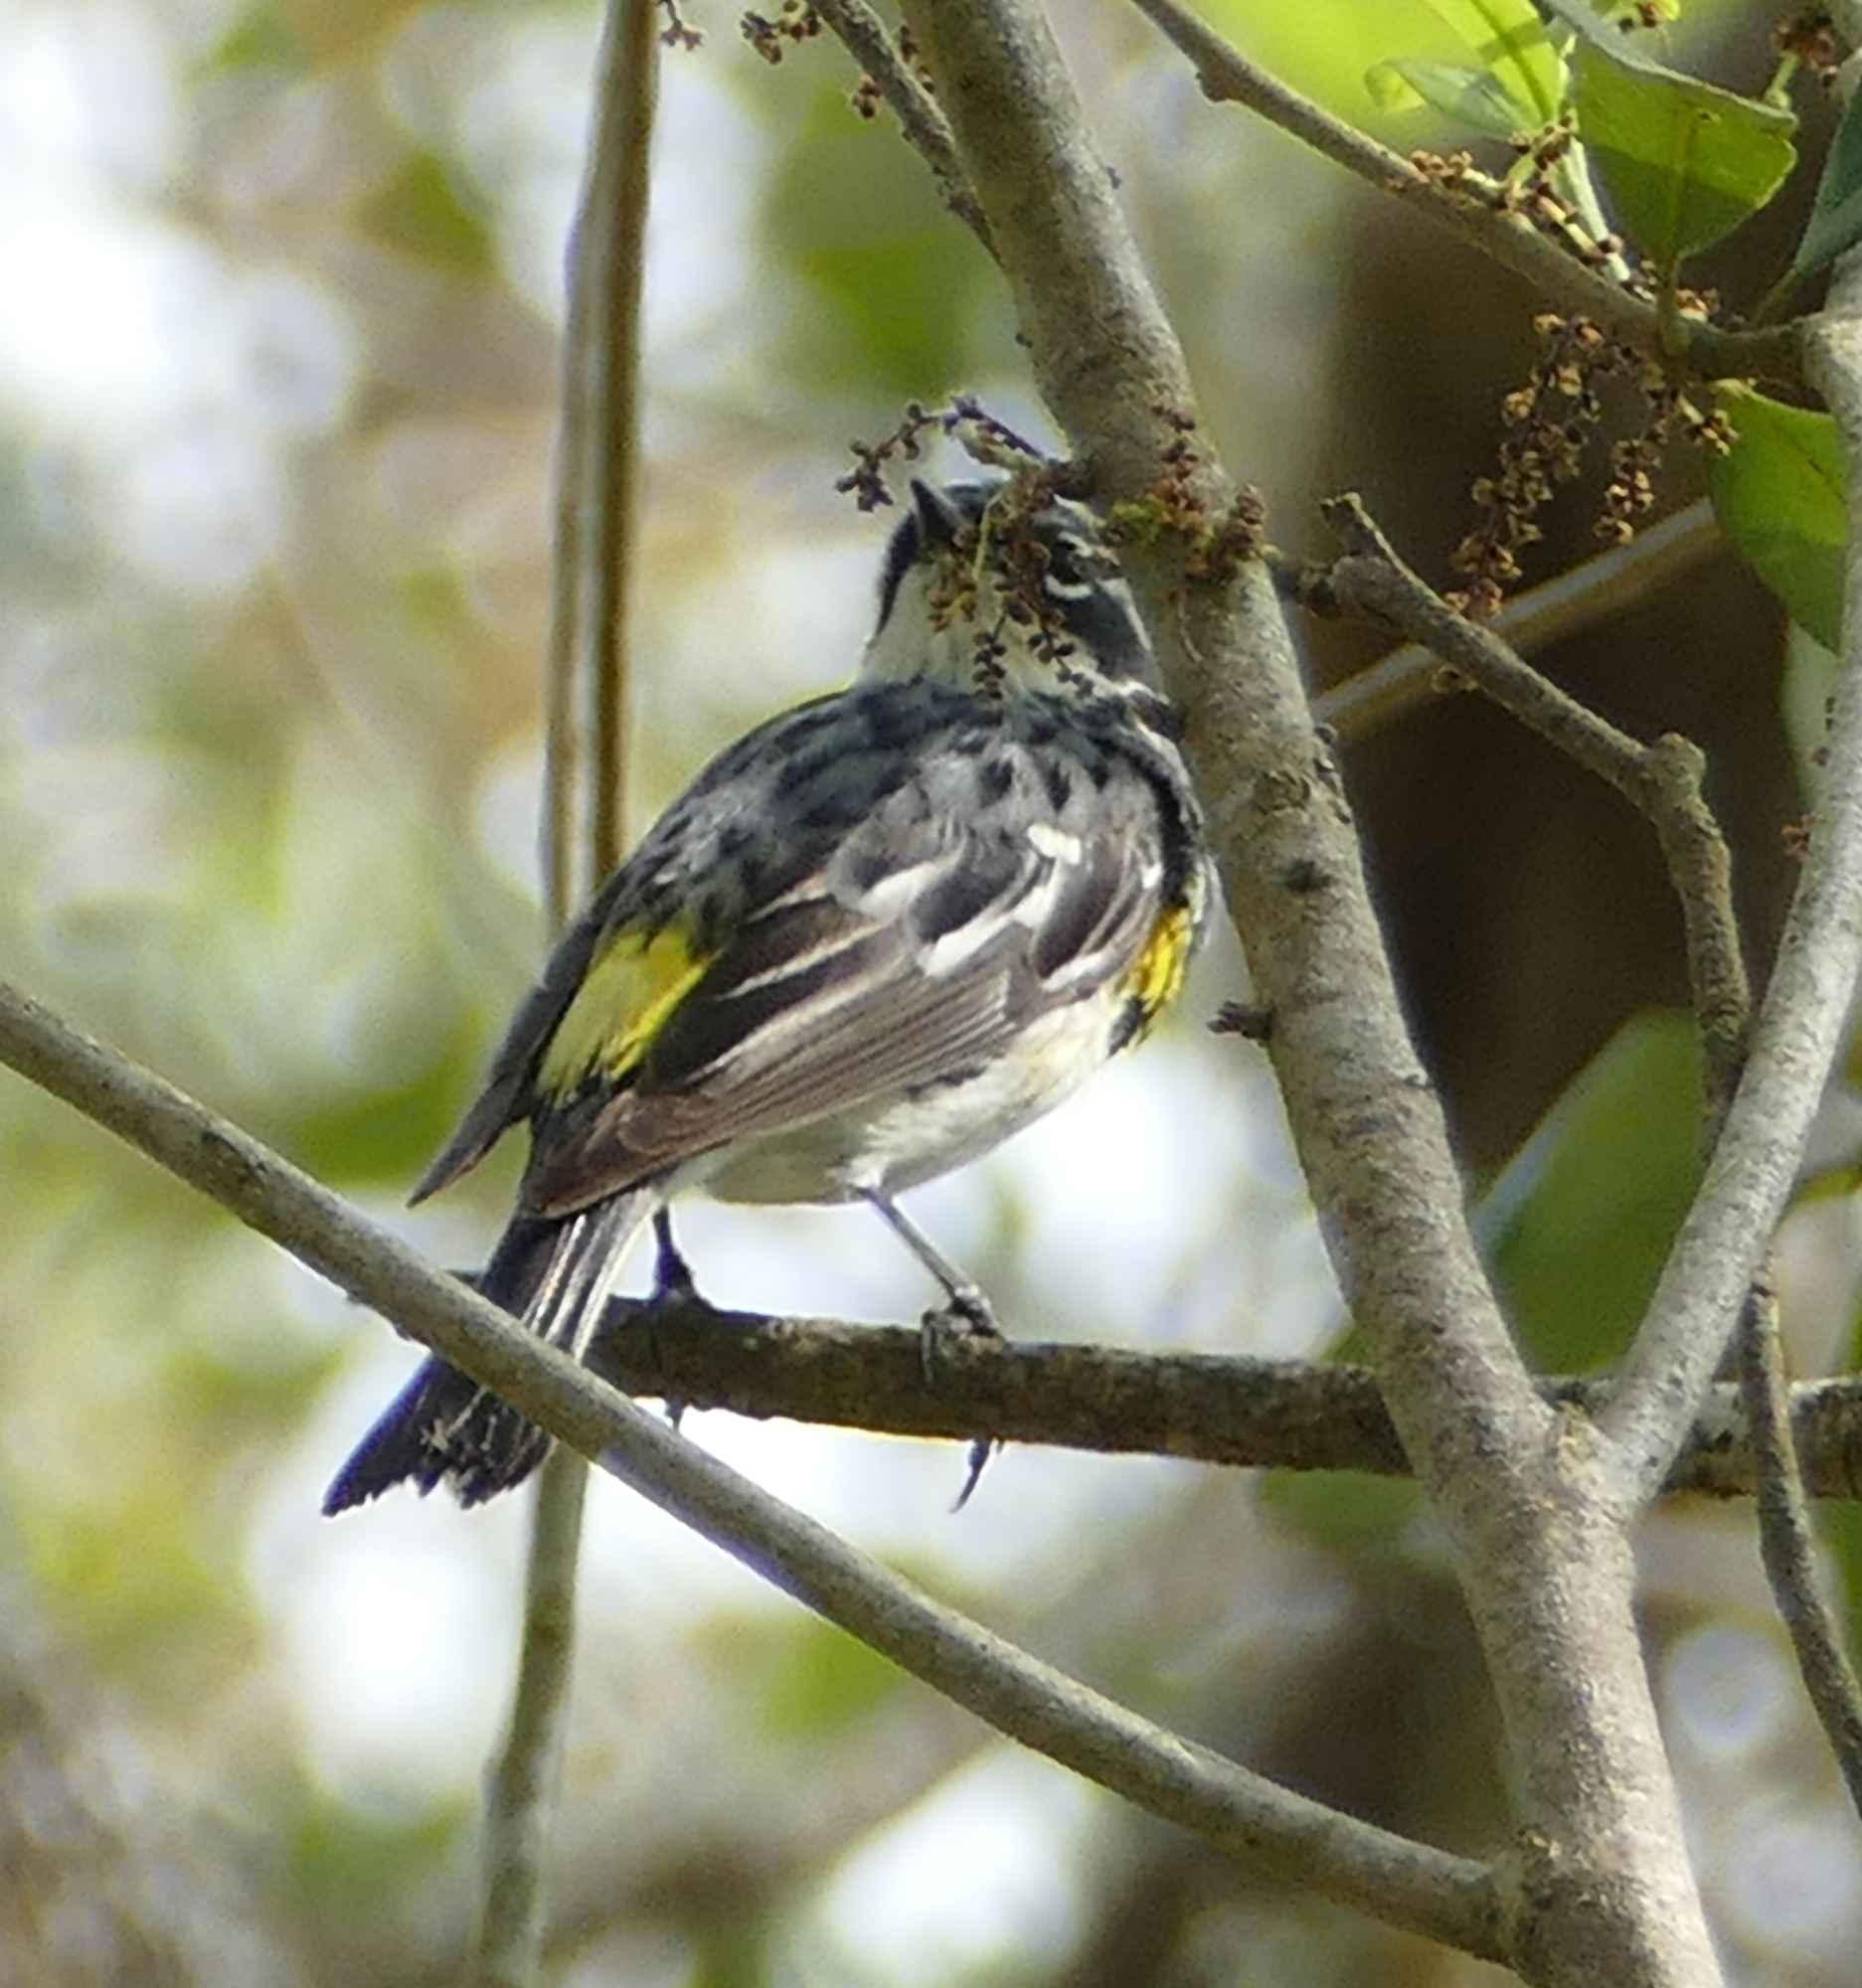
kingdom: Animalia
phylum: Chordata
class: Aves
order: Passeriformes
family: Parulidae
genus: Setophaga
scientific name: Setophaga coronata
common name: Myrtle warbler
